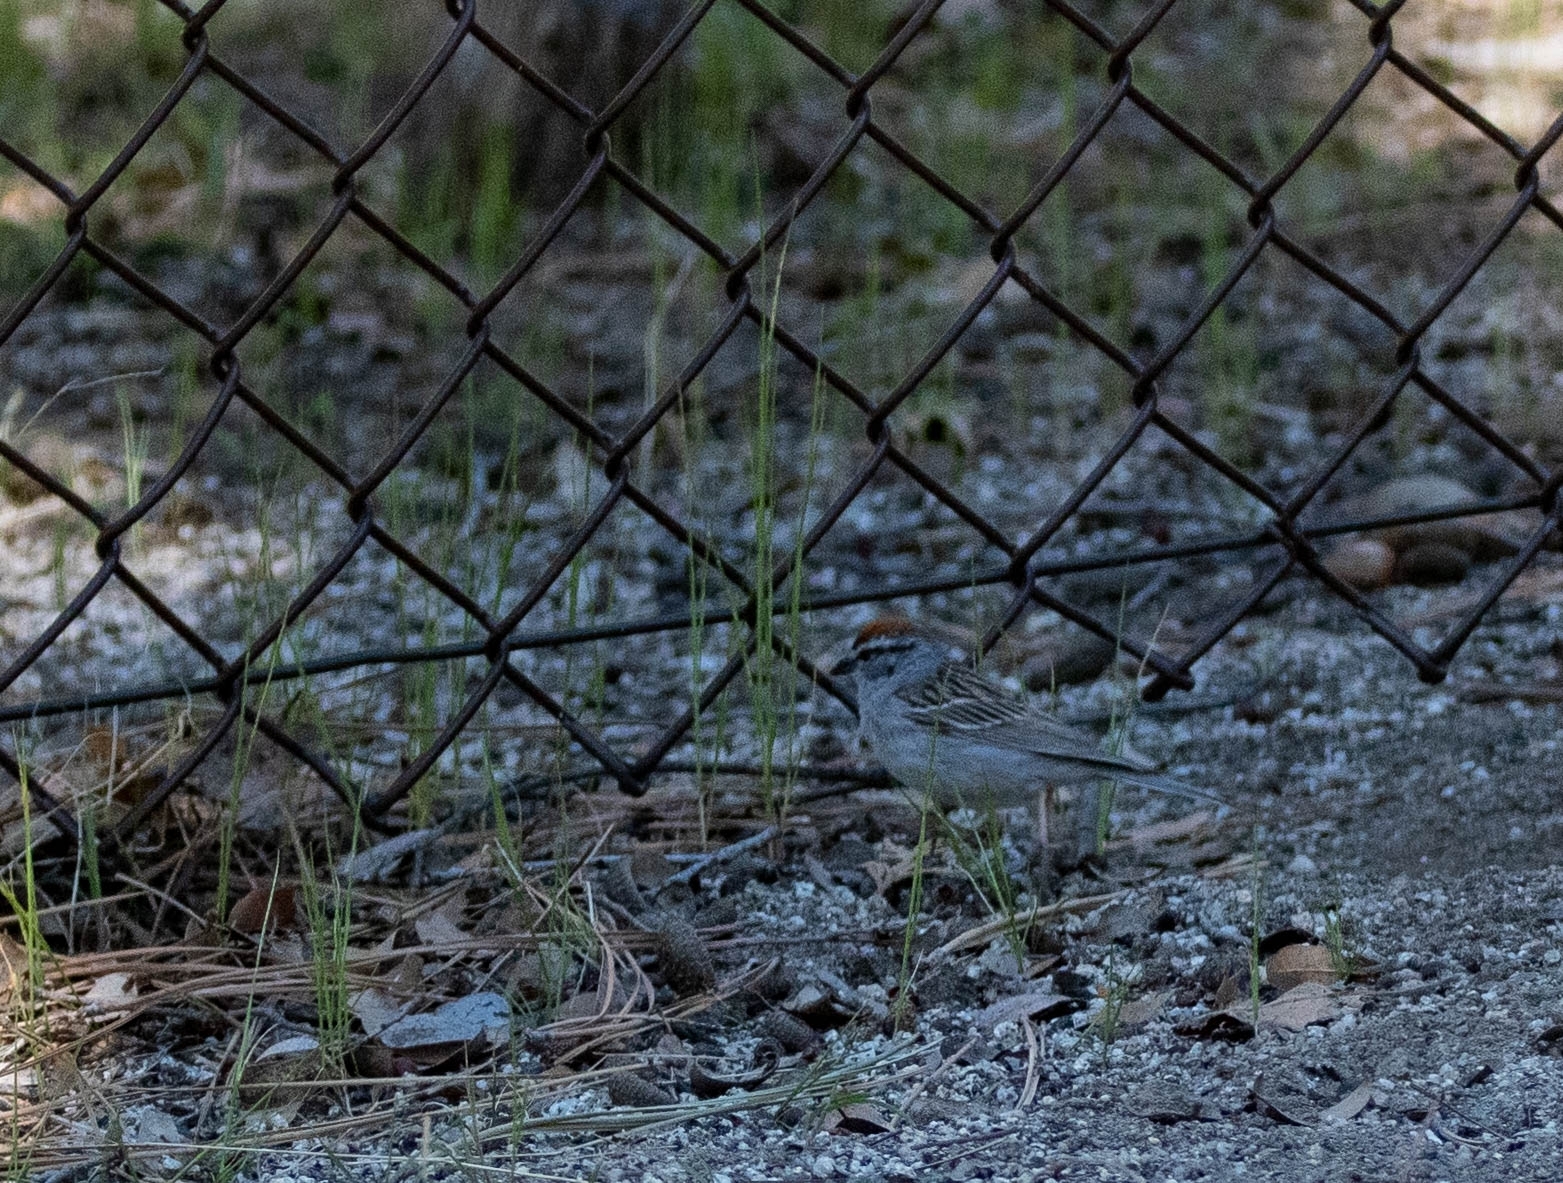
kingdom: Animalia
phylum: Chordata
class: Aves
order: Passeriformes
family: Passerellidae
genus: Spizella
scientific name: Spizella passerina
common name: Chipping sparrow
